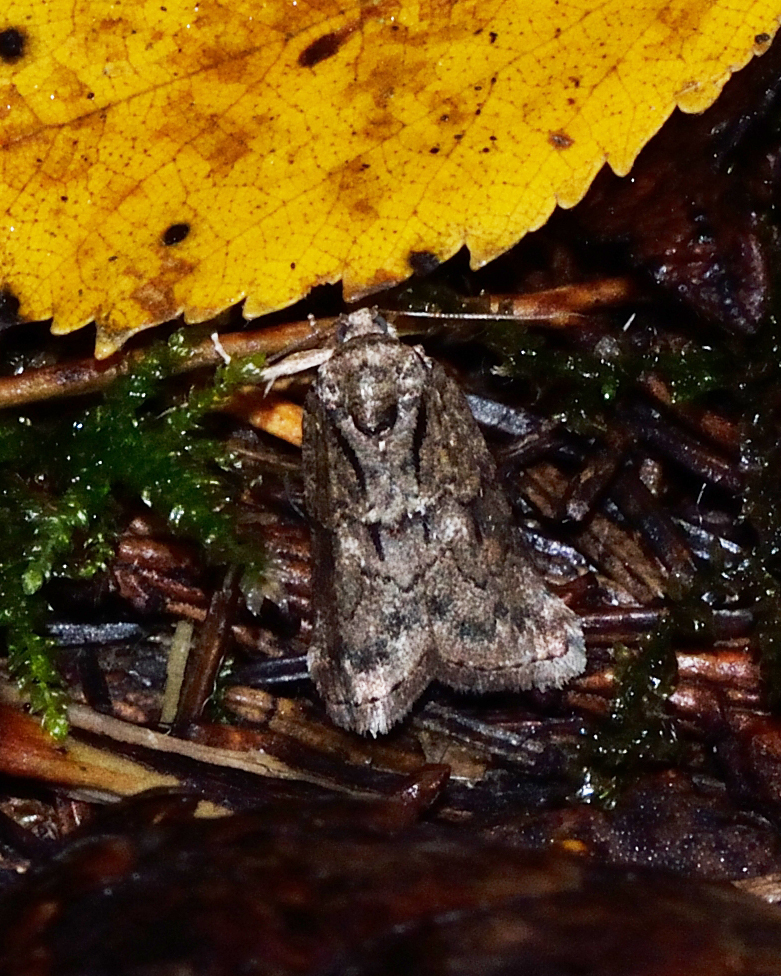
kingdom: Animalia
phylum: Arthropoda
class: Insecta
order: Lepidoptera
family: Nolidae
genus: Nycteola
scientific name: Nycteola degenerana
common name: Swallow nycteoline
